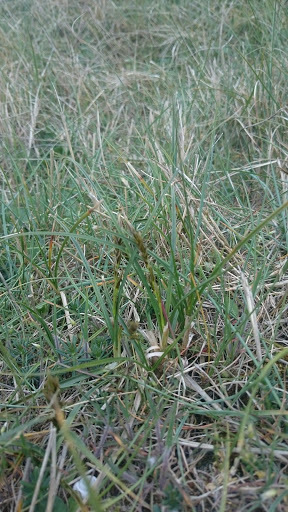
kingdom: Plantae
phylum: Tracheophyta
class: Liliopsida
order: Poales
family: Cyperaceae
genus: Carex
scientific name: Carex arenaria
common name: Sand sedge
